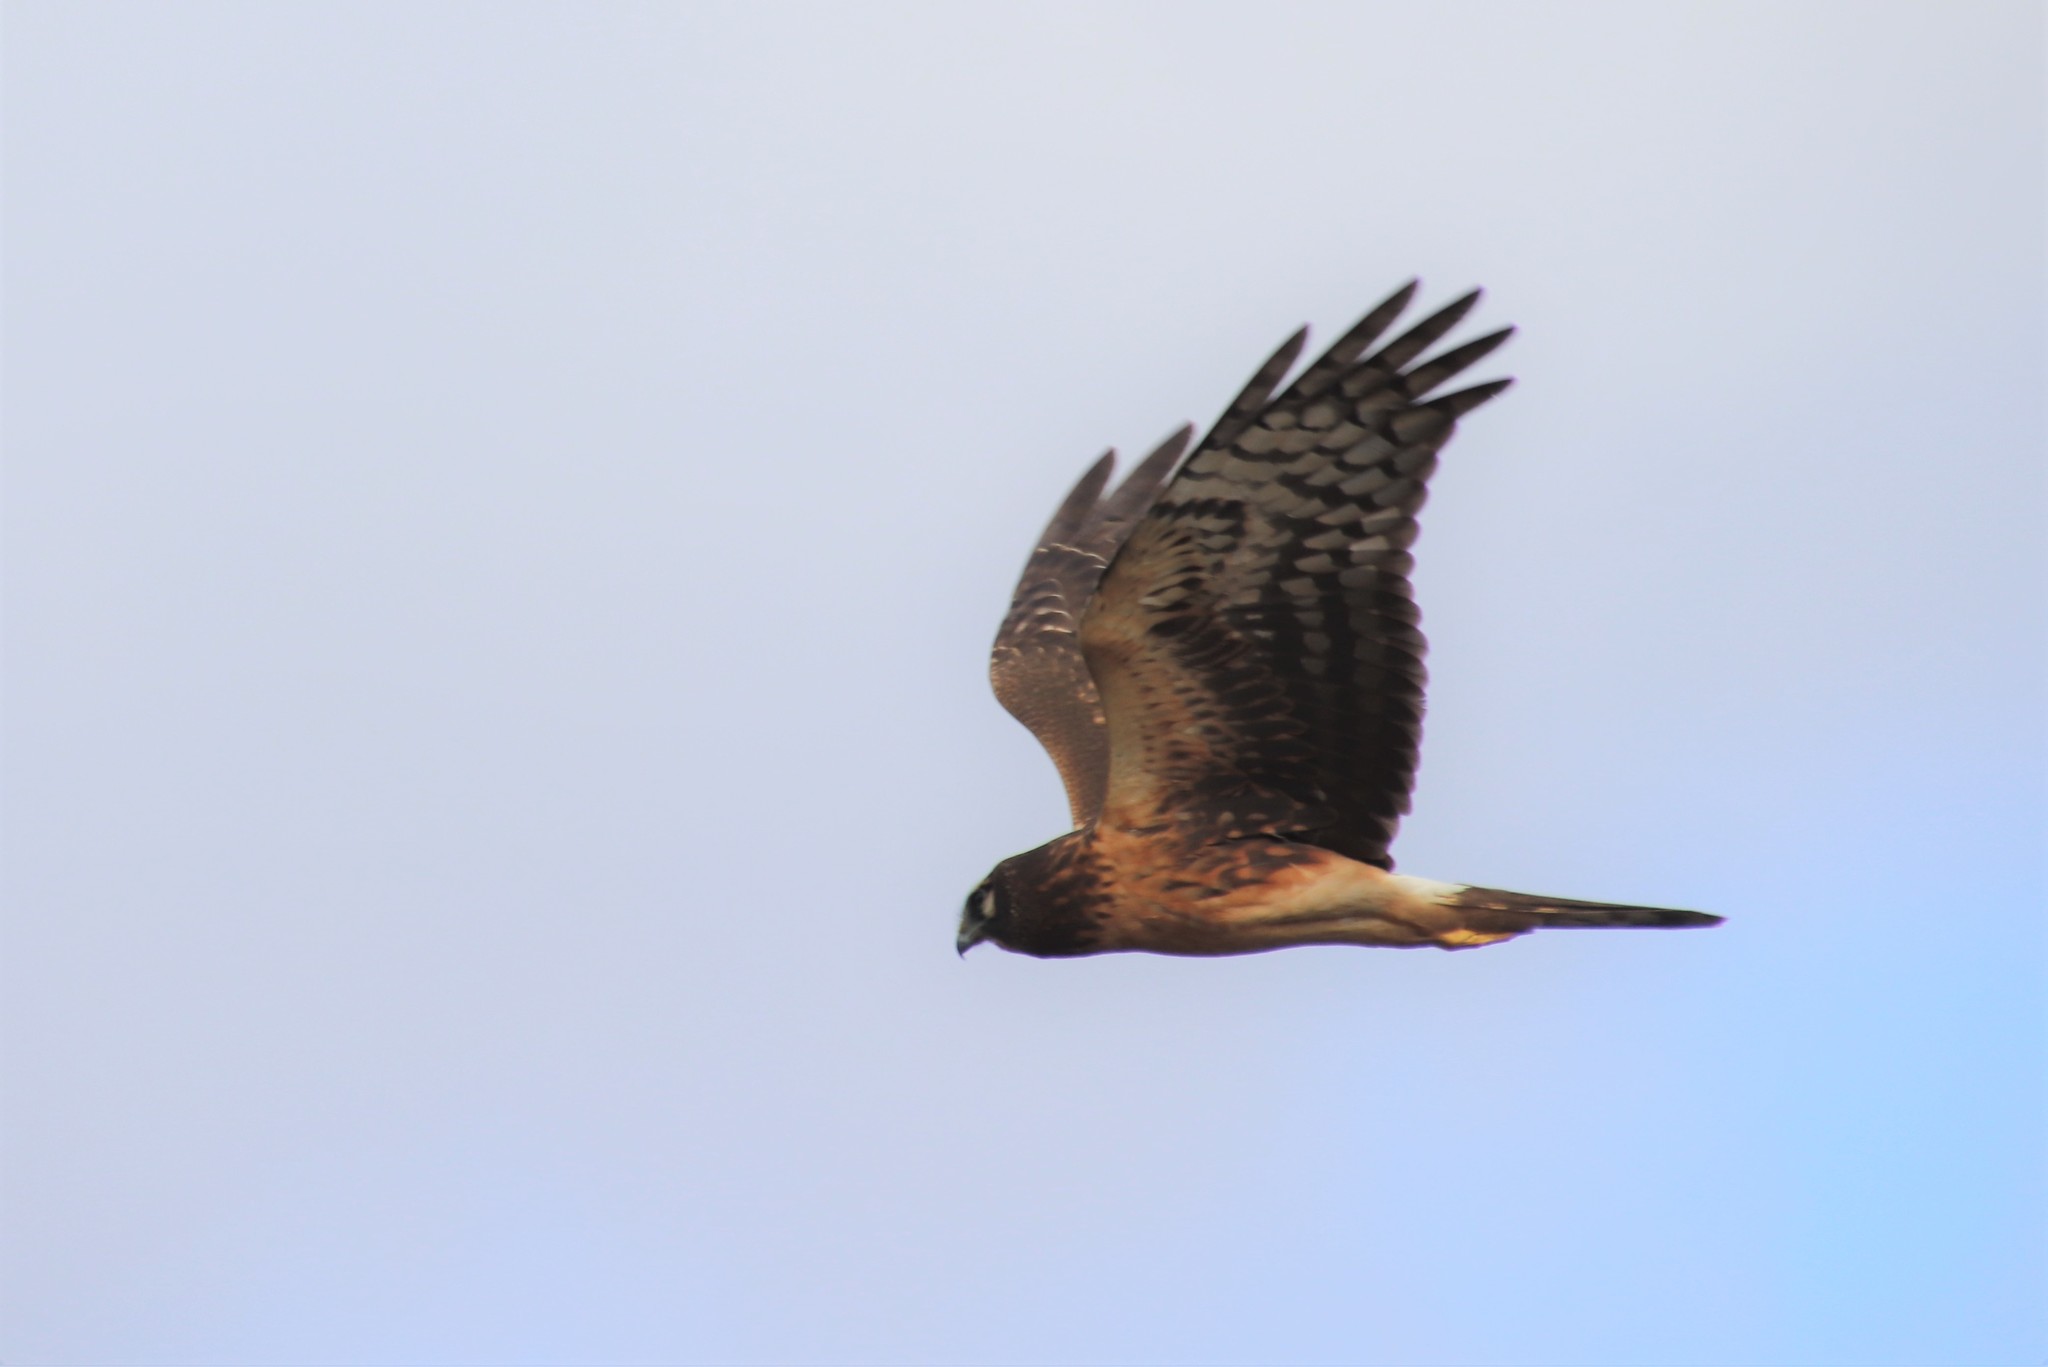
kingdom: Animalia
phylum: Chordata
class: Aves
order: Accipitriformes
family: Accipitridae
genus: Circus
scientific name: Circus cyaneus
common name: Hen harrier
